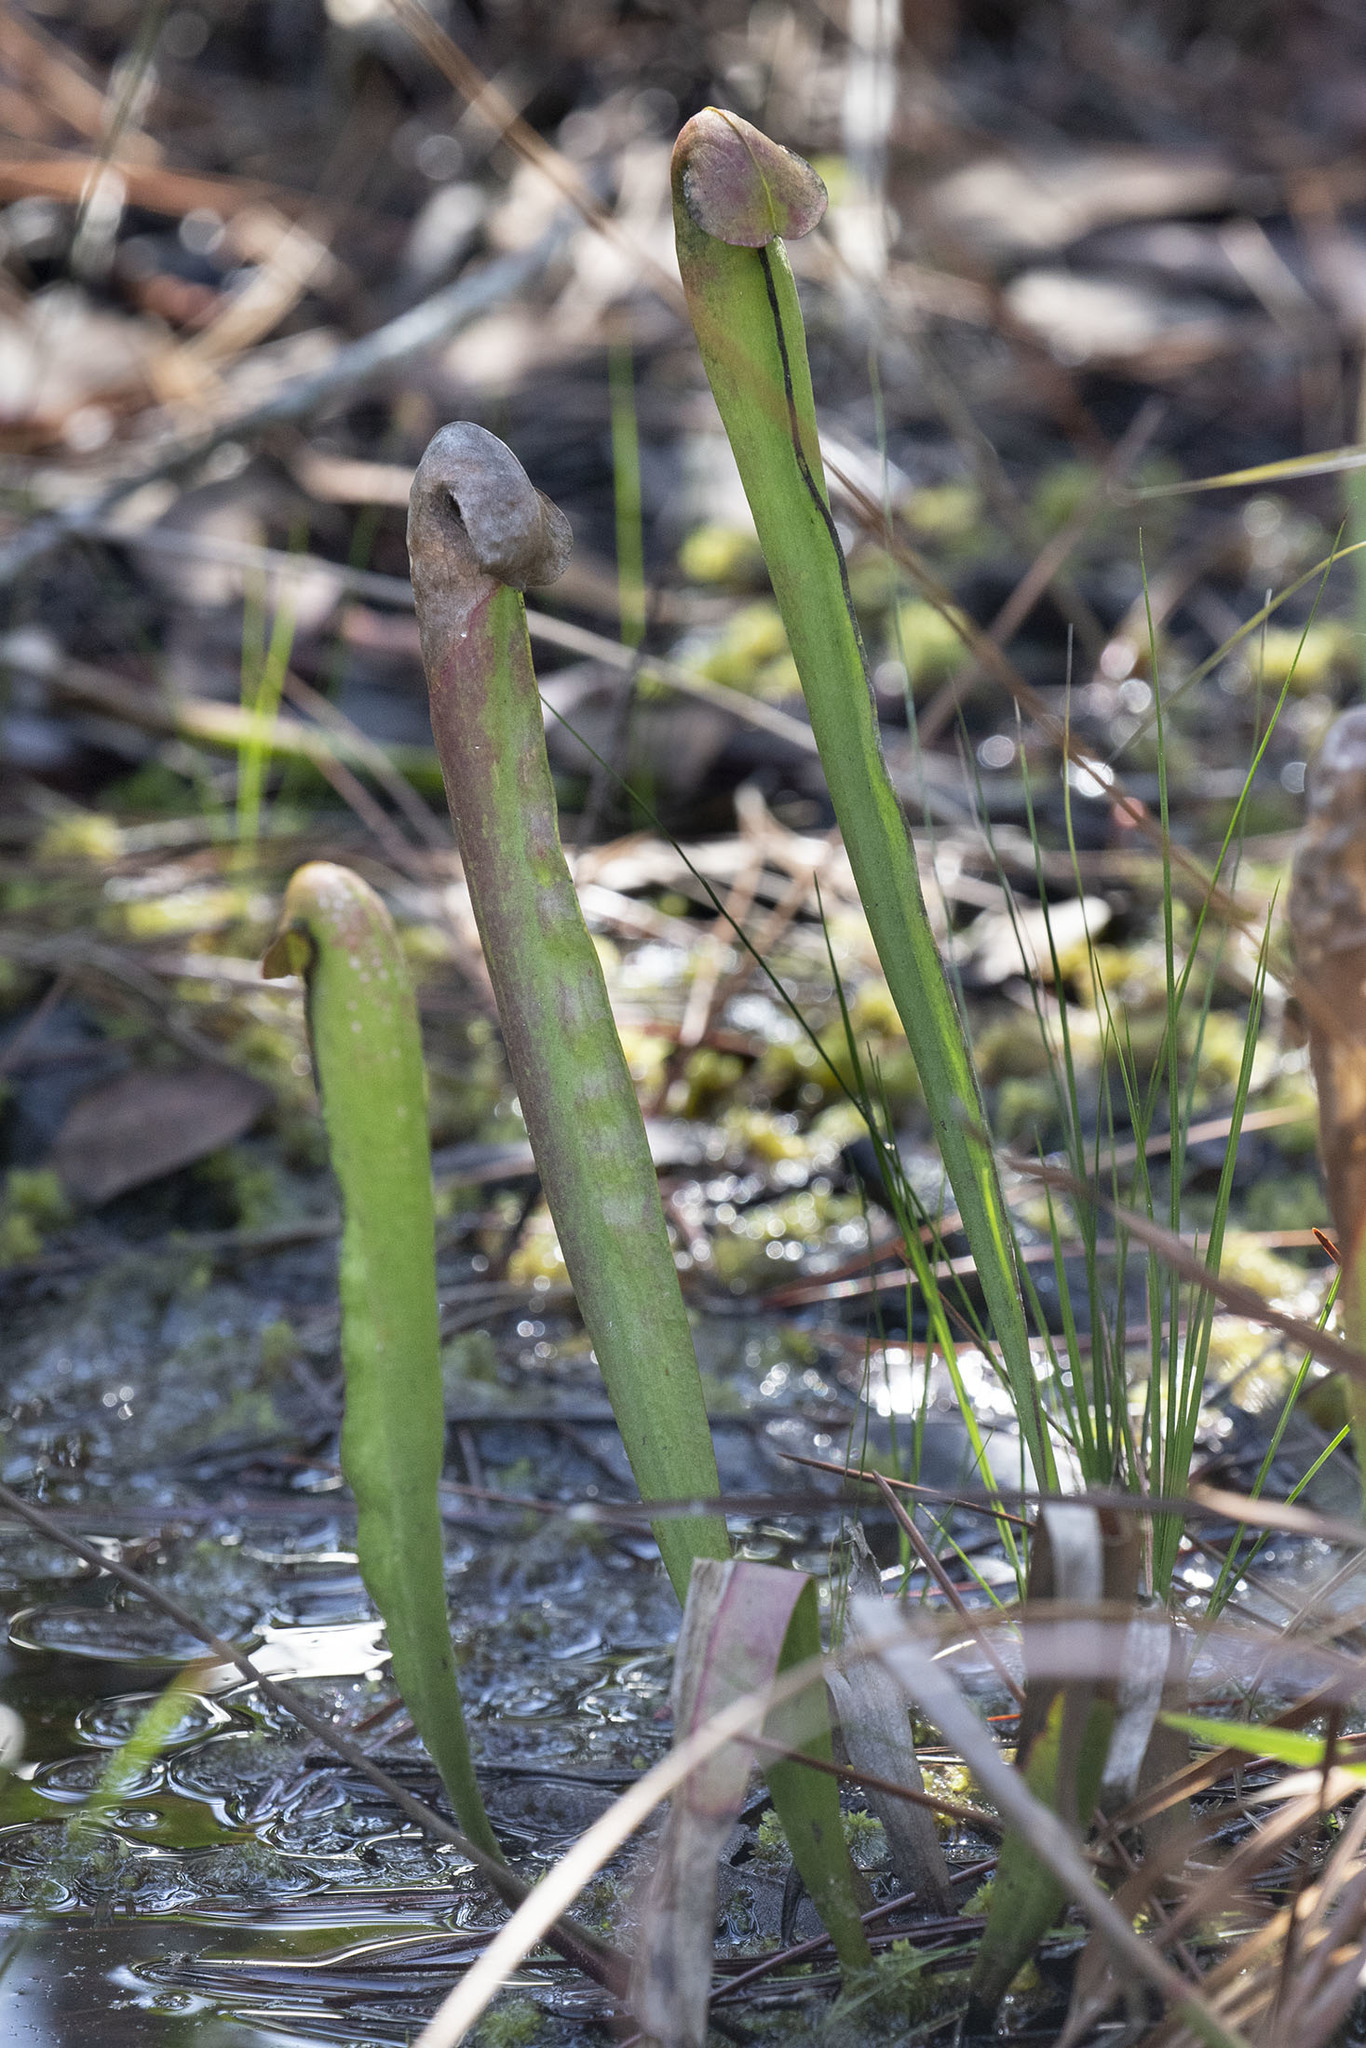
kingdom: Plantae
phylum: Tracheophyta
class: Magnoliopsida
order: Ericales
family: Sarraceniaceae
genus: Sarracenia
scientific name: Sarracenia minor
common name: Rainhat-trumpet
